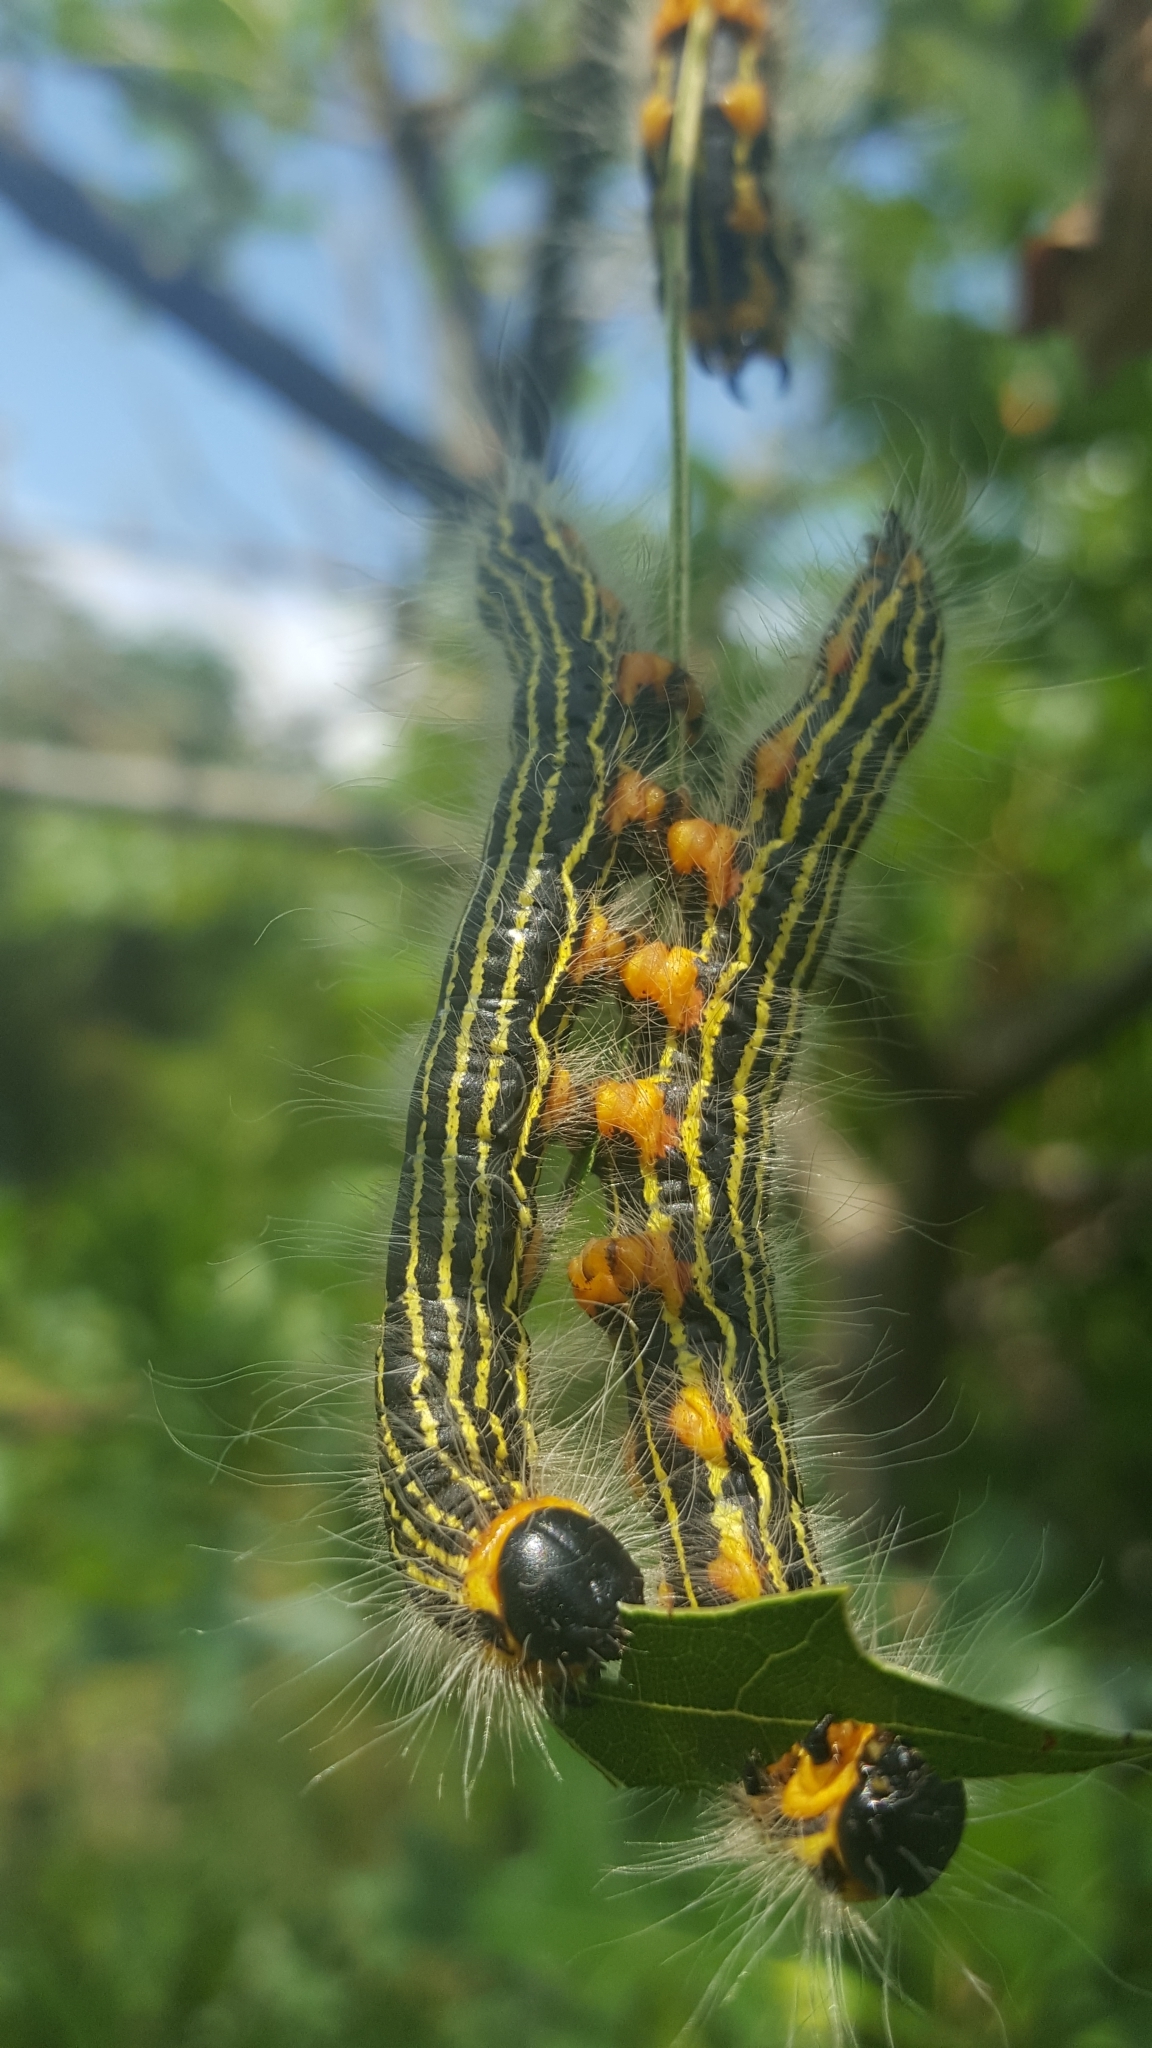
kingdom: Animalia
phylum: Arthropoda
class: Insecta
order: Lepidoptera
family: Notodontidae
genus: Datana
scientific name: Datana ministra
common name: Yellow-necked caterpillar moth
